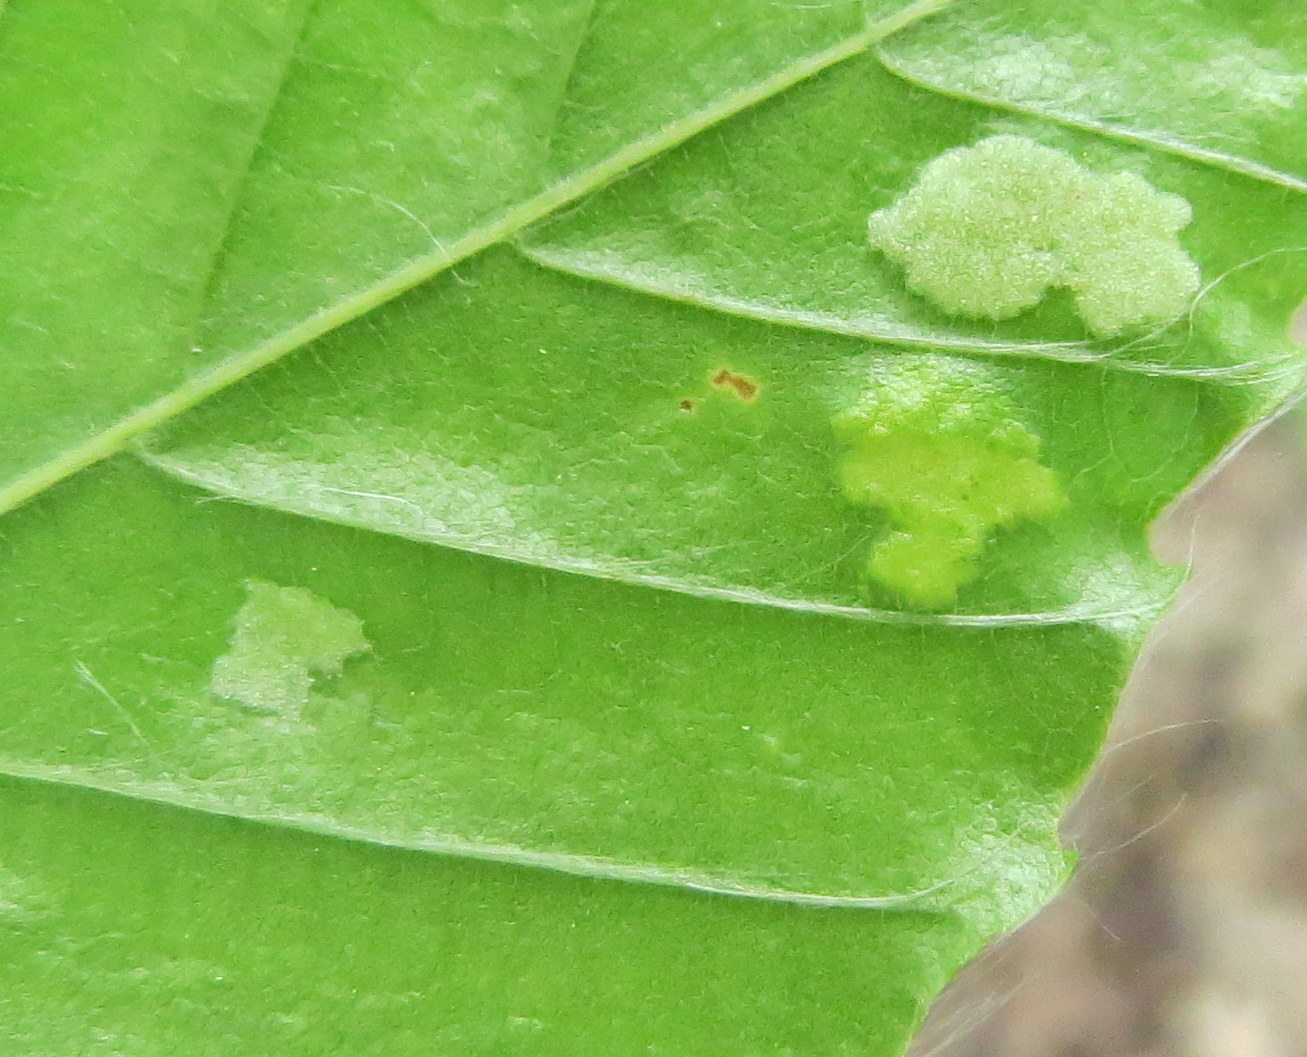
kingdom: Animalia
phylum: Arthropoda
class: Arachnida
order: Trombidiformes
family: Eriophyidae
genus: Acalitus
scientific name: Acalitus
